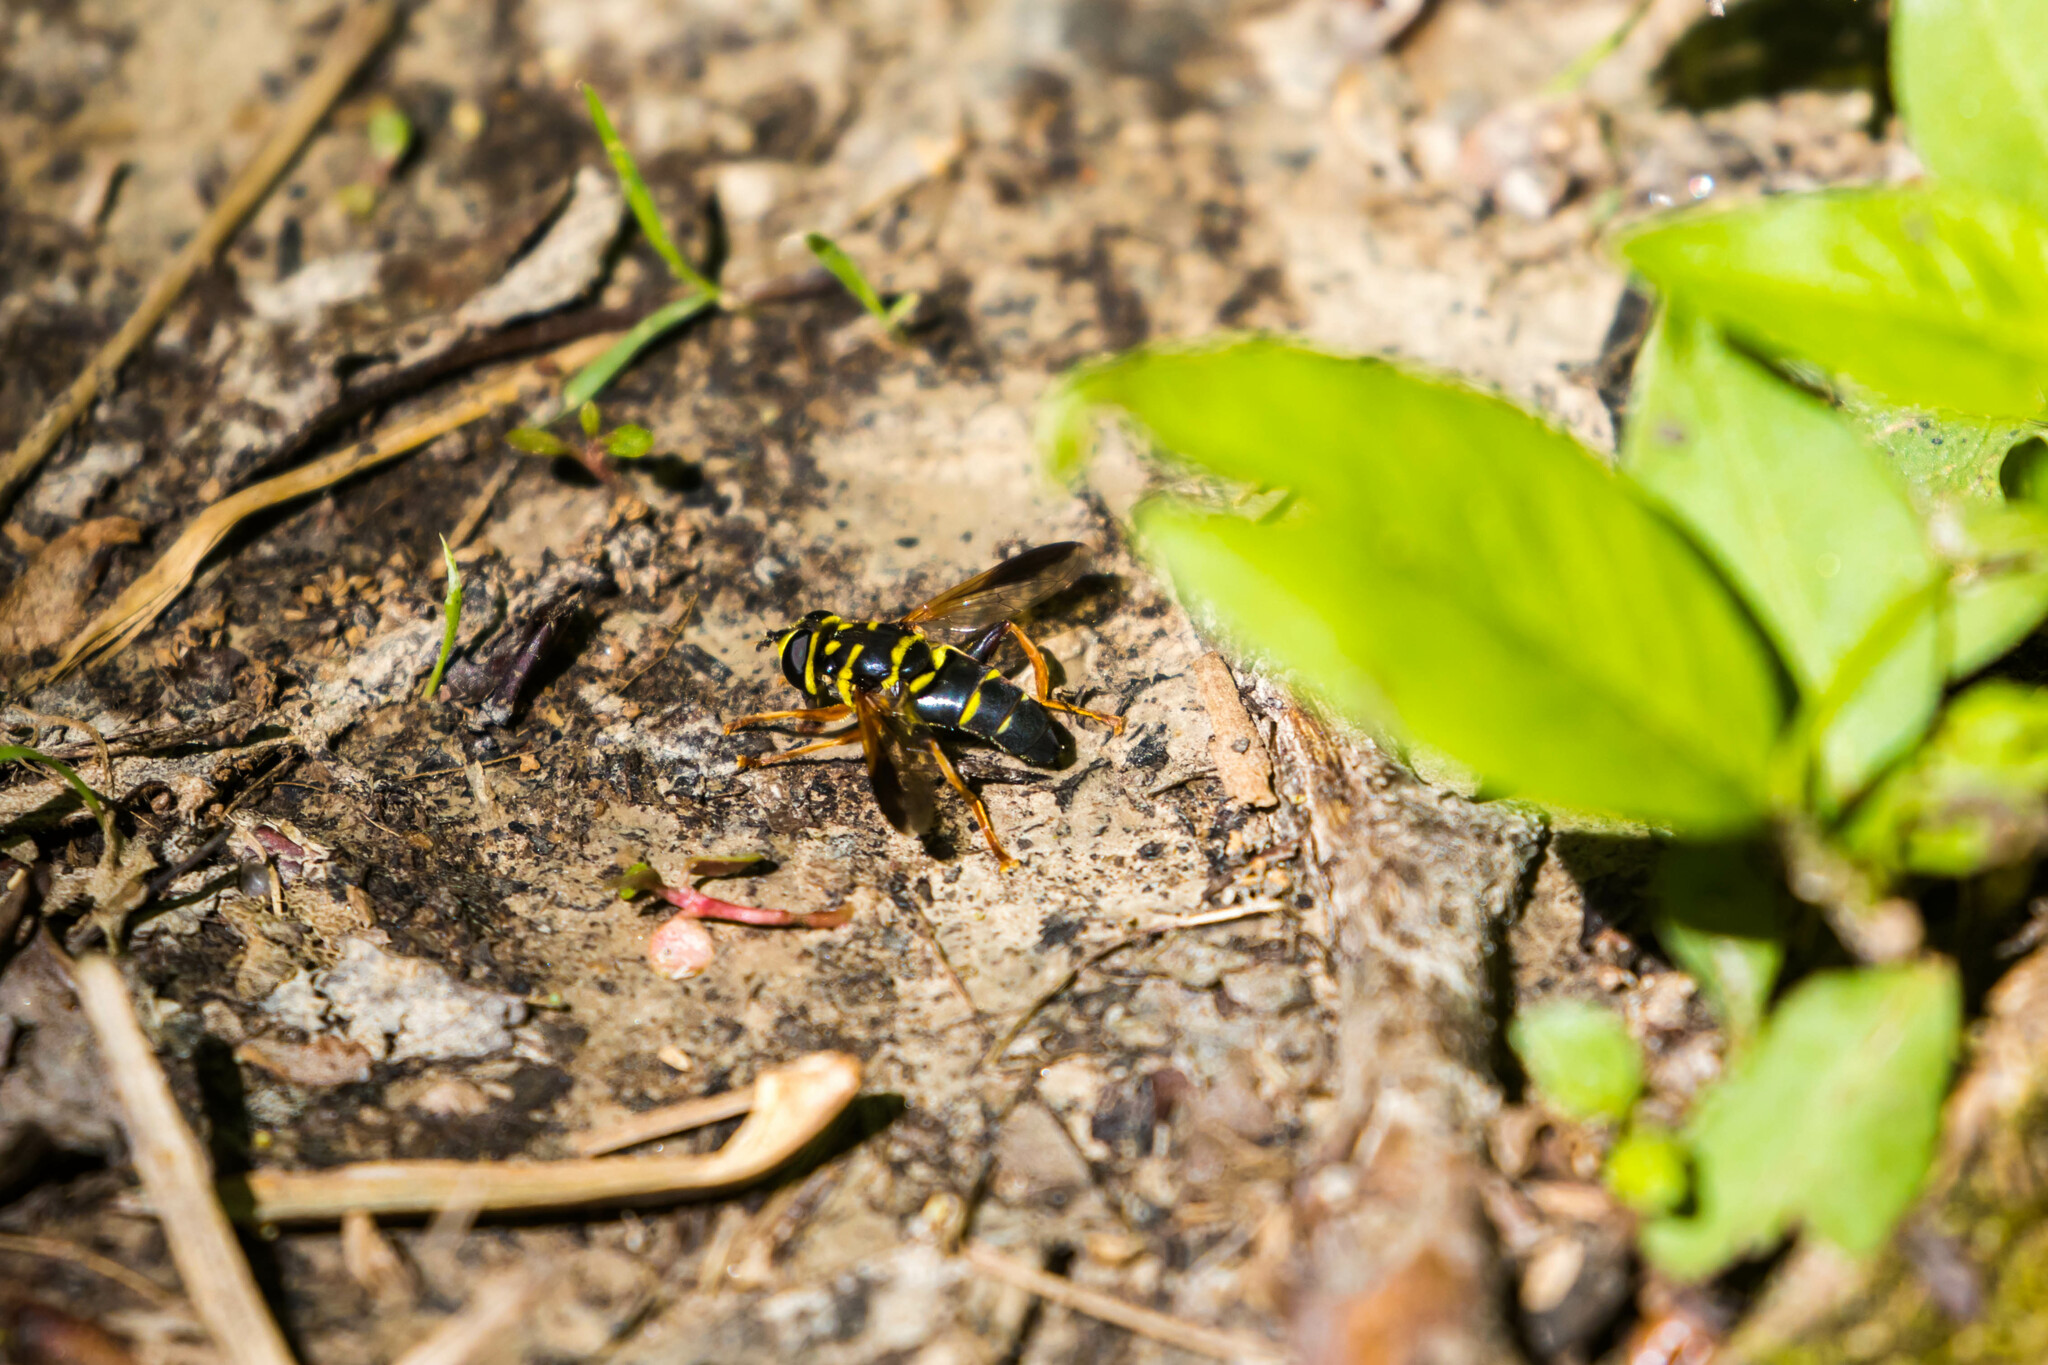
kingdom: Animalia
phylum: Arthropoda
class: Insecta
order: Diptera
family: Syrphidae
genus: Meromacrus
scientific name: Meromacrus acutus
